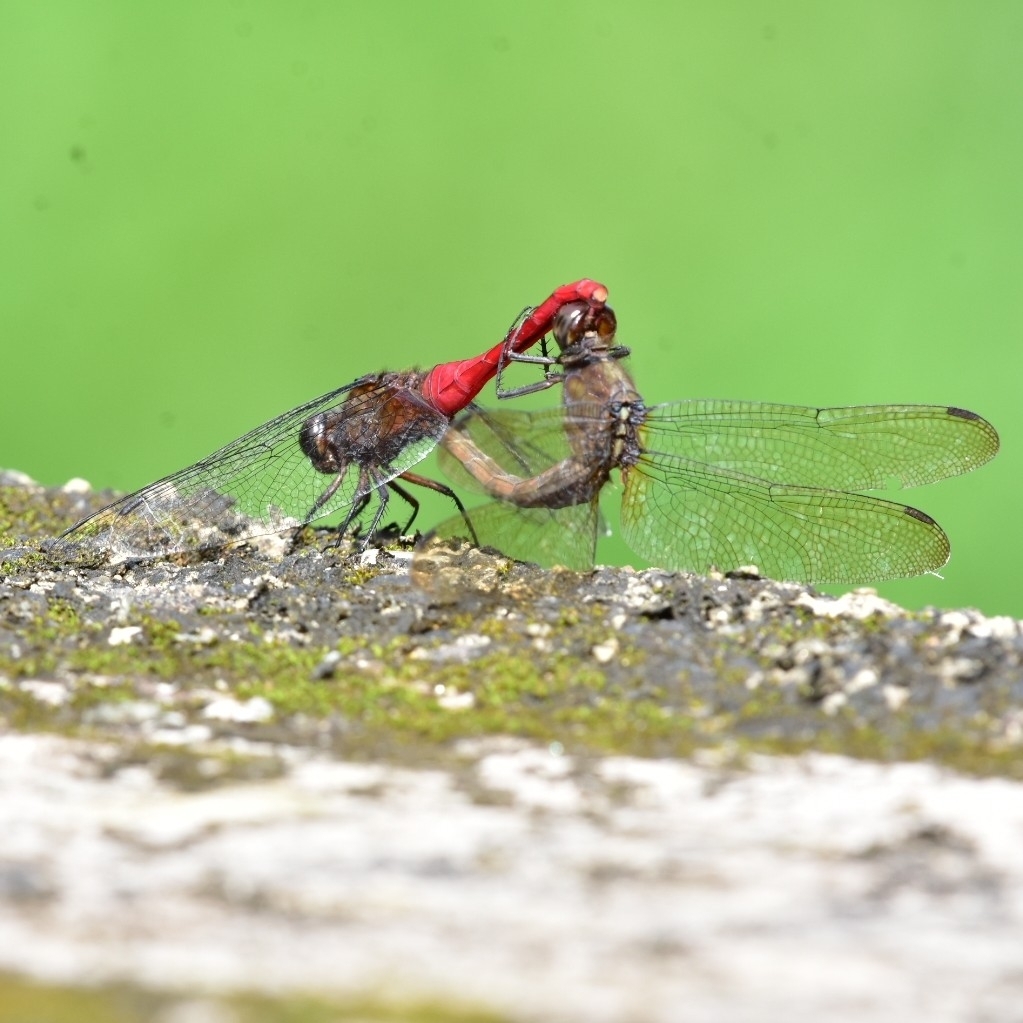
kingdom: Animalia
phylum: Arthropoda
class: Insecta
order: Odonata
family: Libellulidae
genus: Orthetrum
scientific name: Orthetrum chrysis
